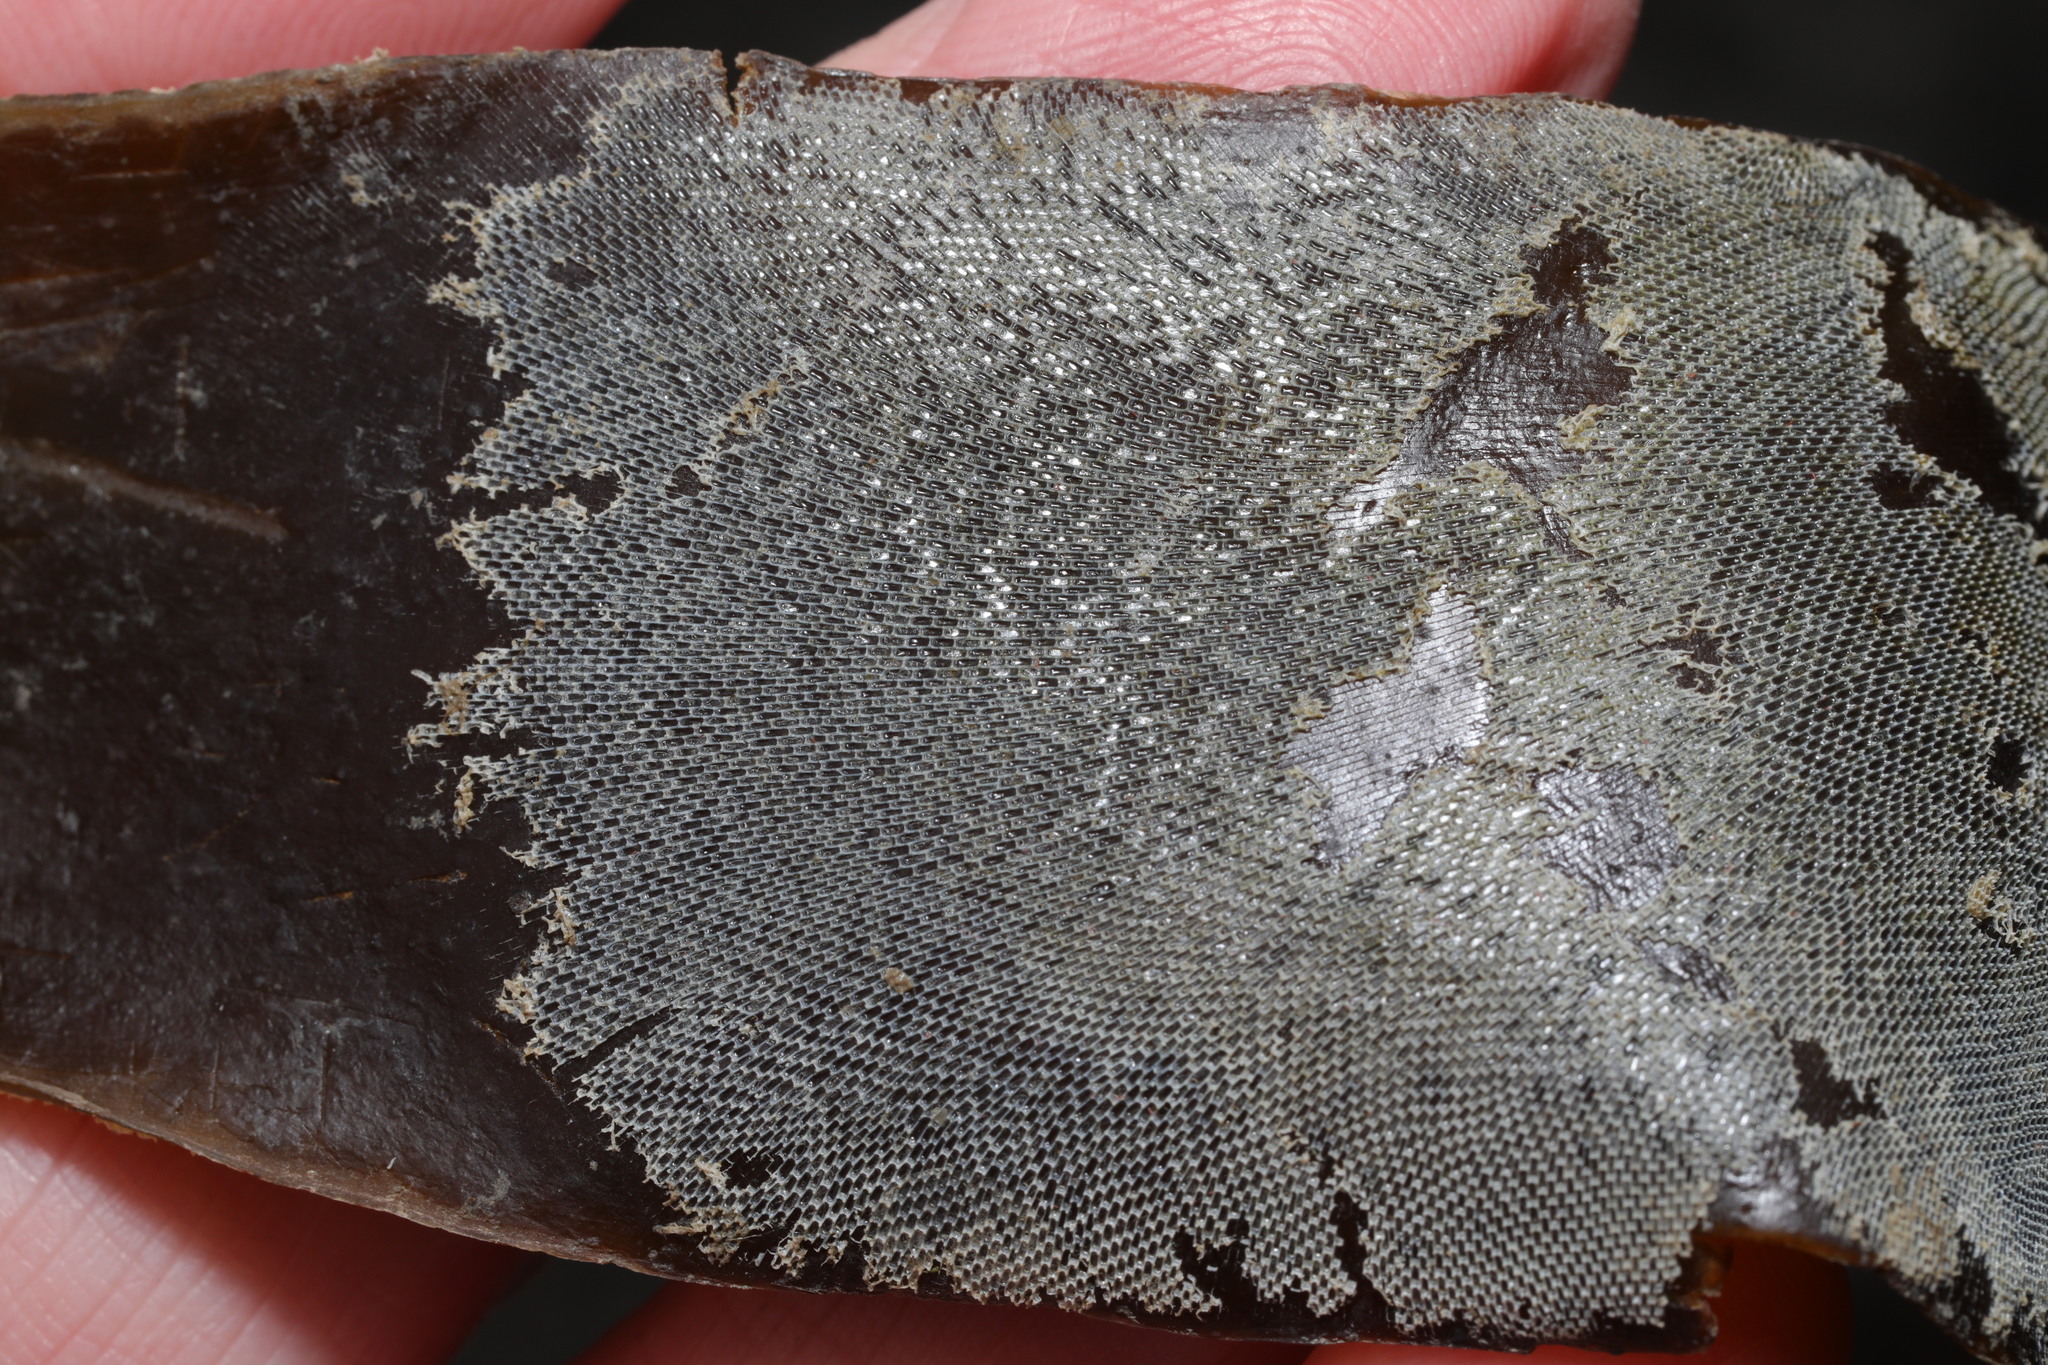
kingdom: Animalia
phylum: Bryozoa
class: Gymnolaemata
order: Cheilostomatida
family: Membraniporidae
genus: Membranipora
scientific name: Membranipora membranacea
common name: Sea mat
